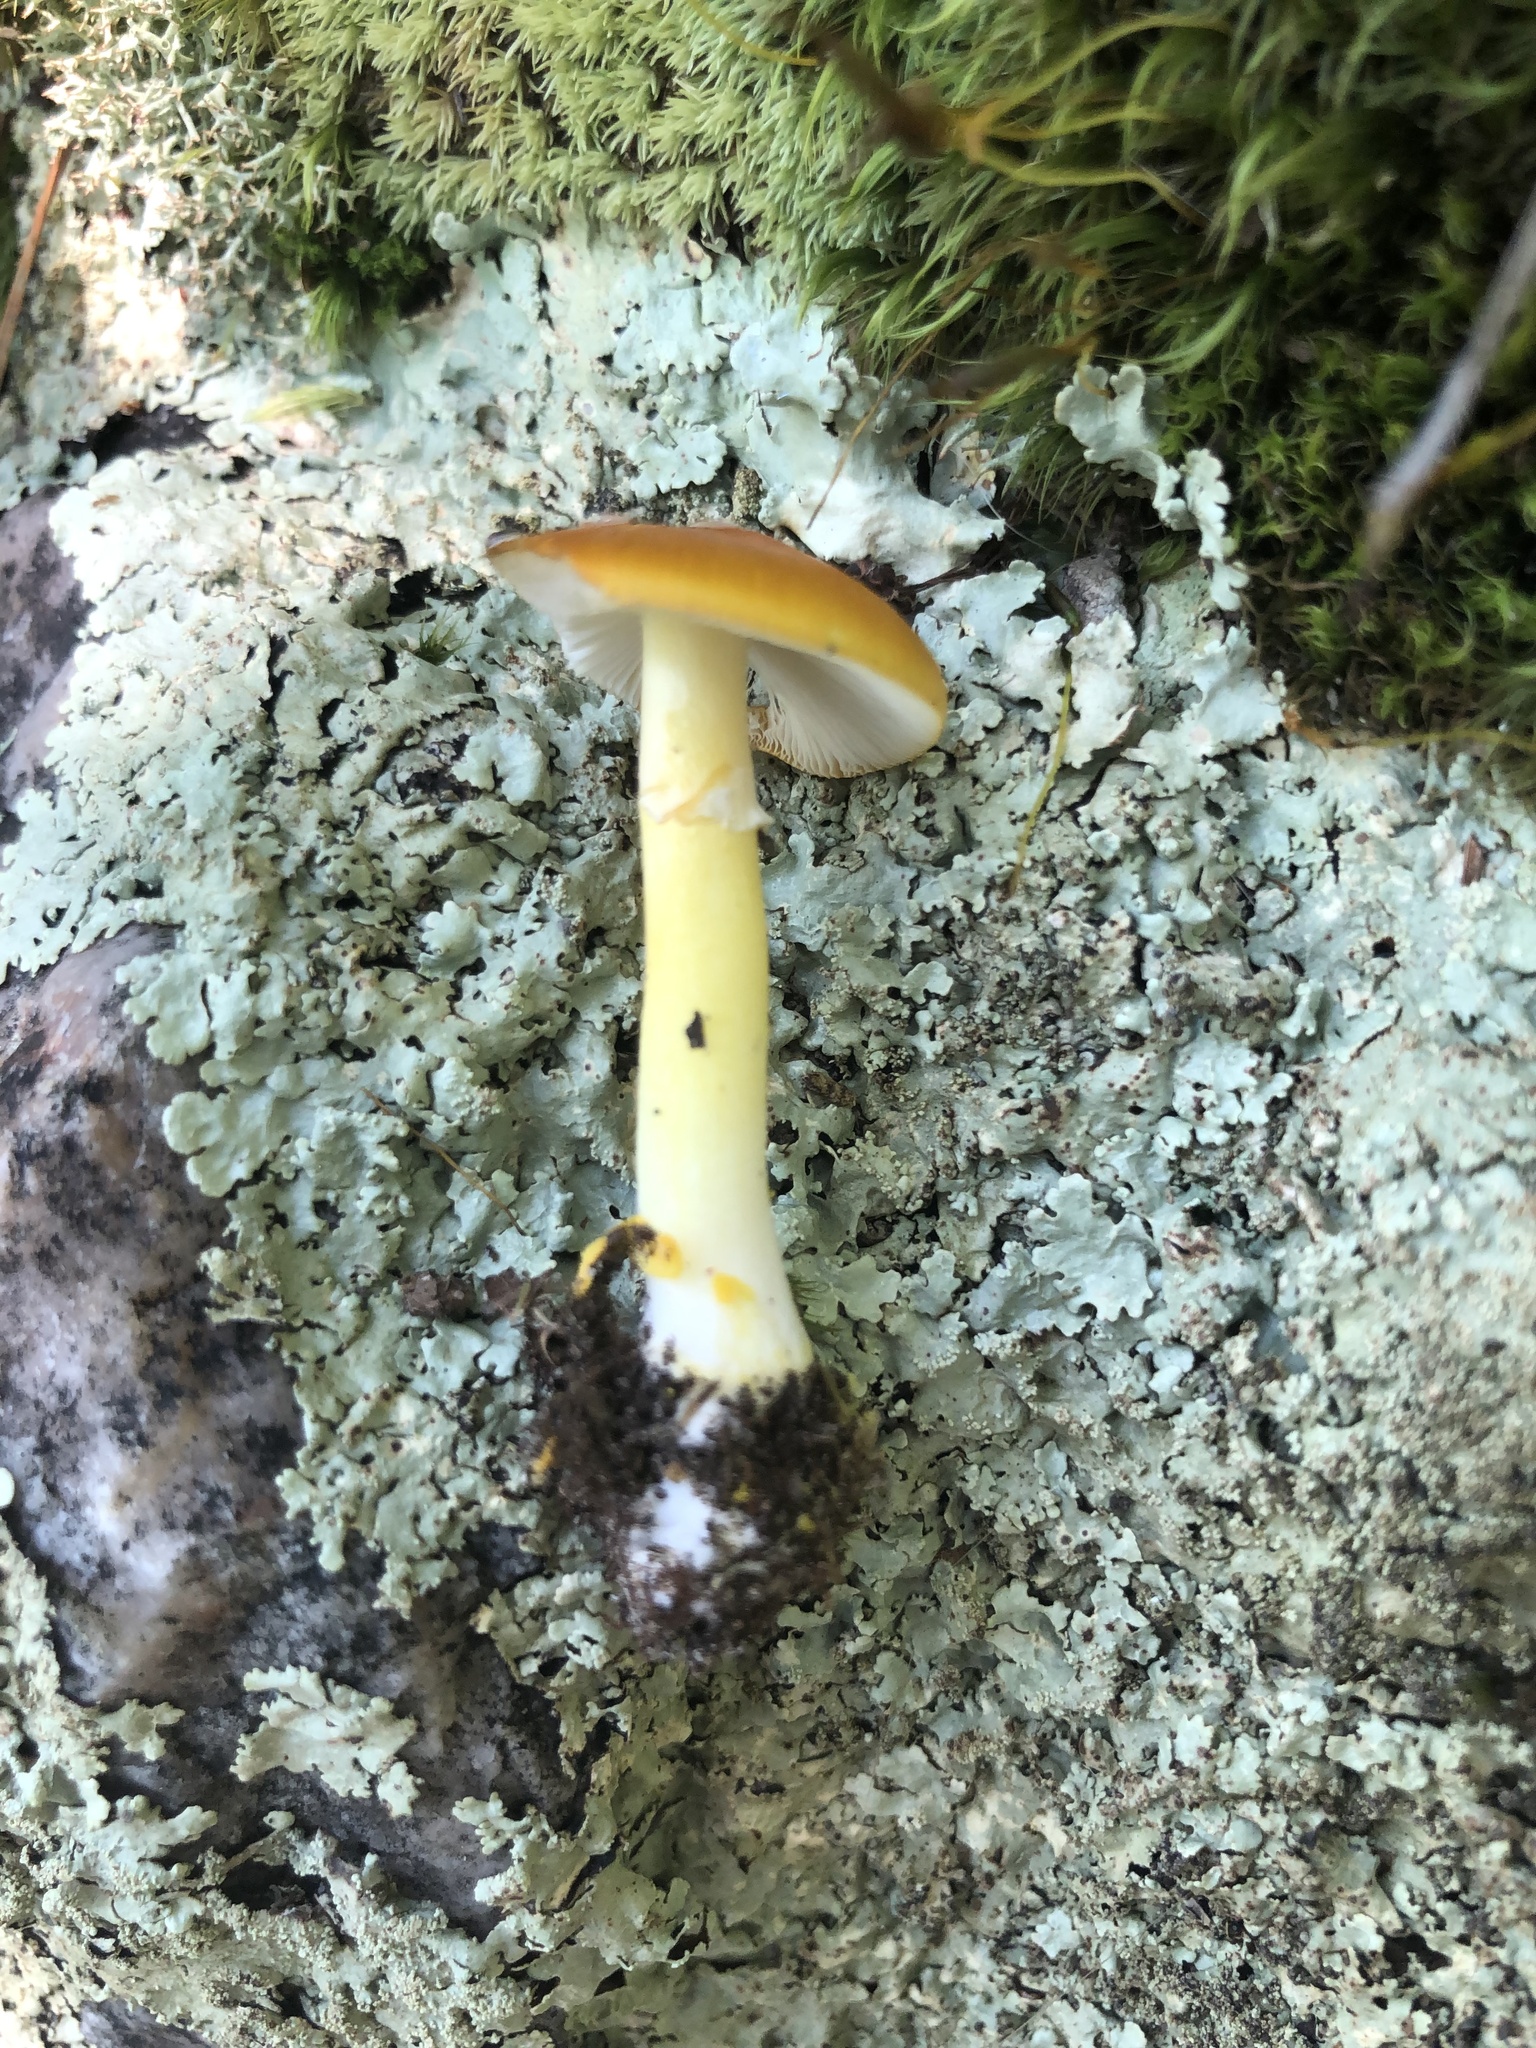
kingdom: Fungi
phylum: Basidiomycota
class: Agaricomycetes
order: Agaricales
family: Amanitaceae
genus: Amanita
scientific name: Amanita flavoconia
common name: Yellow patches
